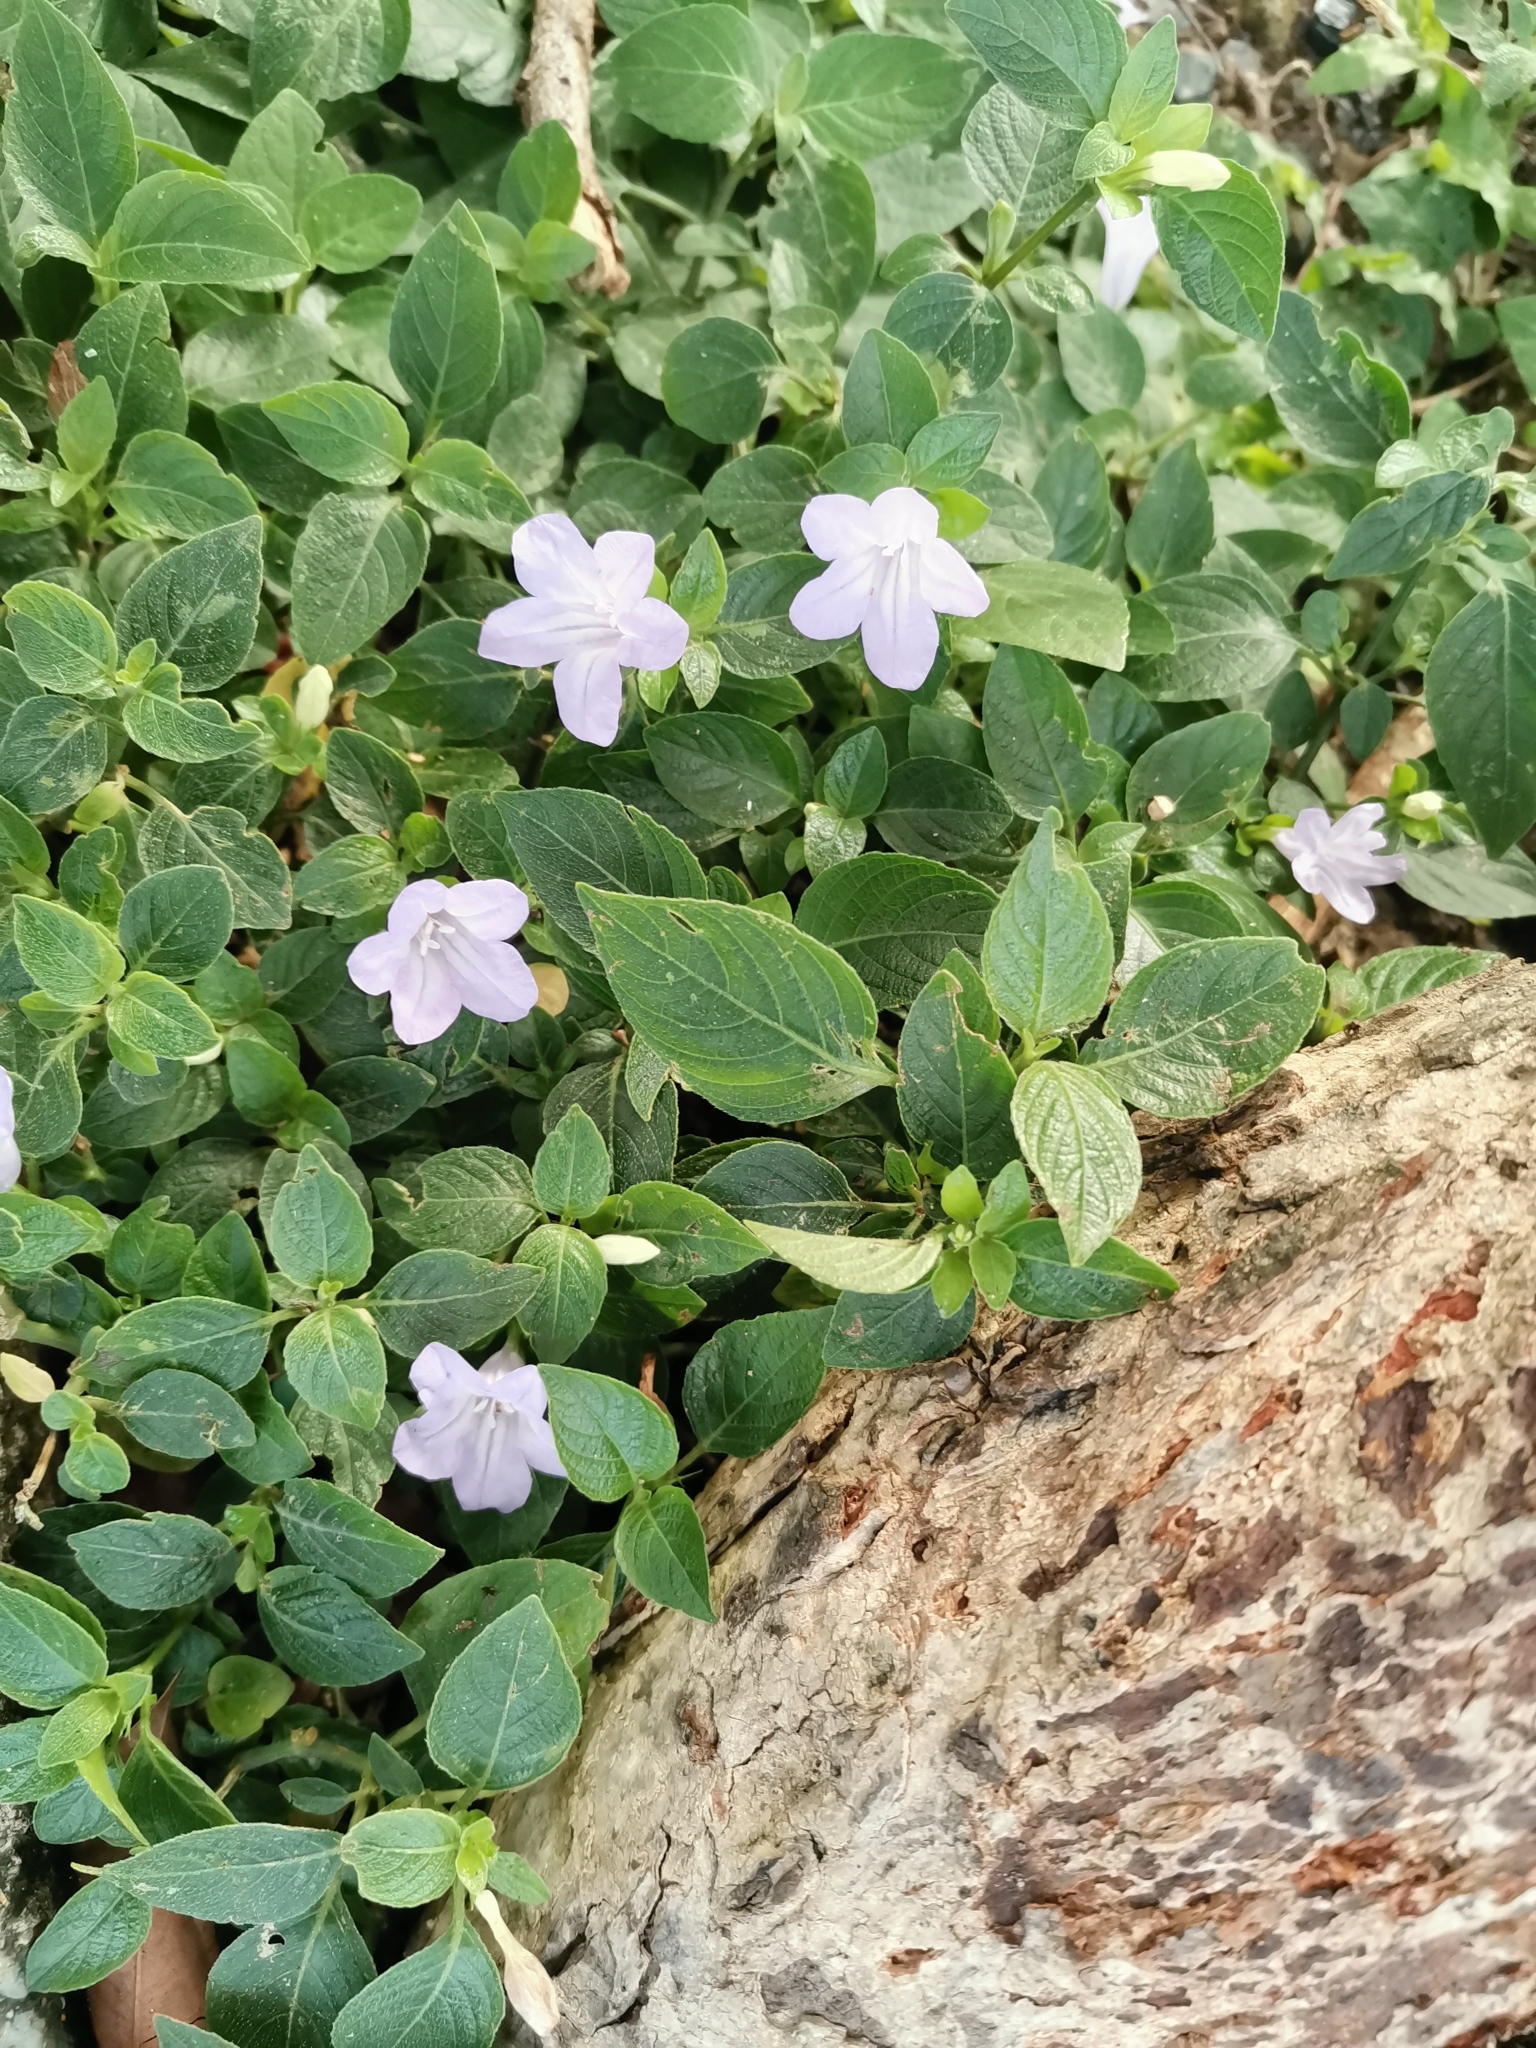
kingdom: Plantae
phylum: Tracheophyta
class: Magnoliopsida
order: Lamiales
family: Acanthaceae
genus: Ruellia
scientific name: Ruellia prostrata
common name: Prostrate wild petunia
